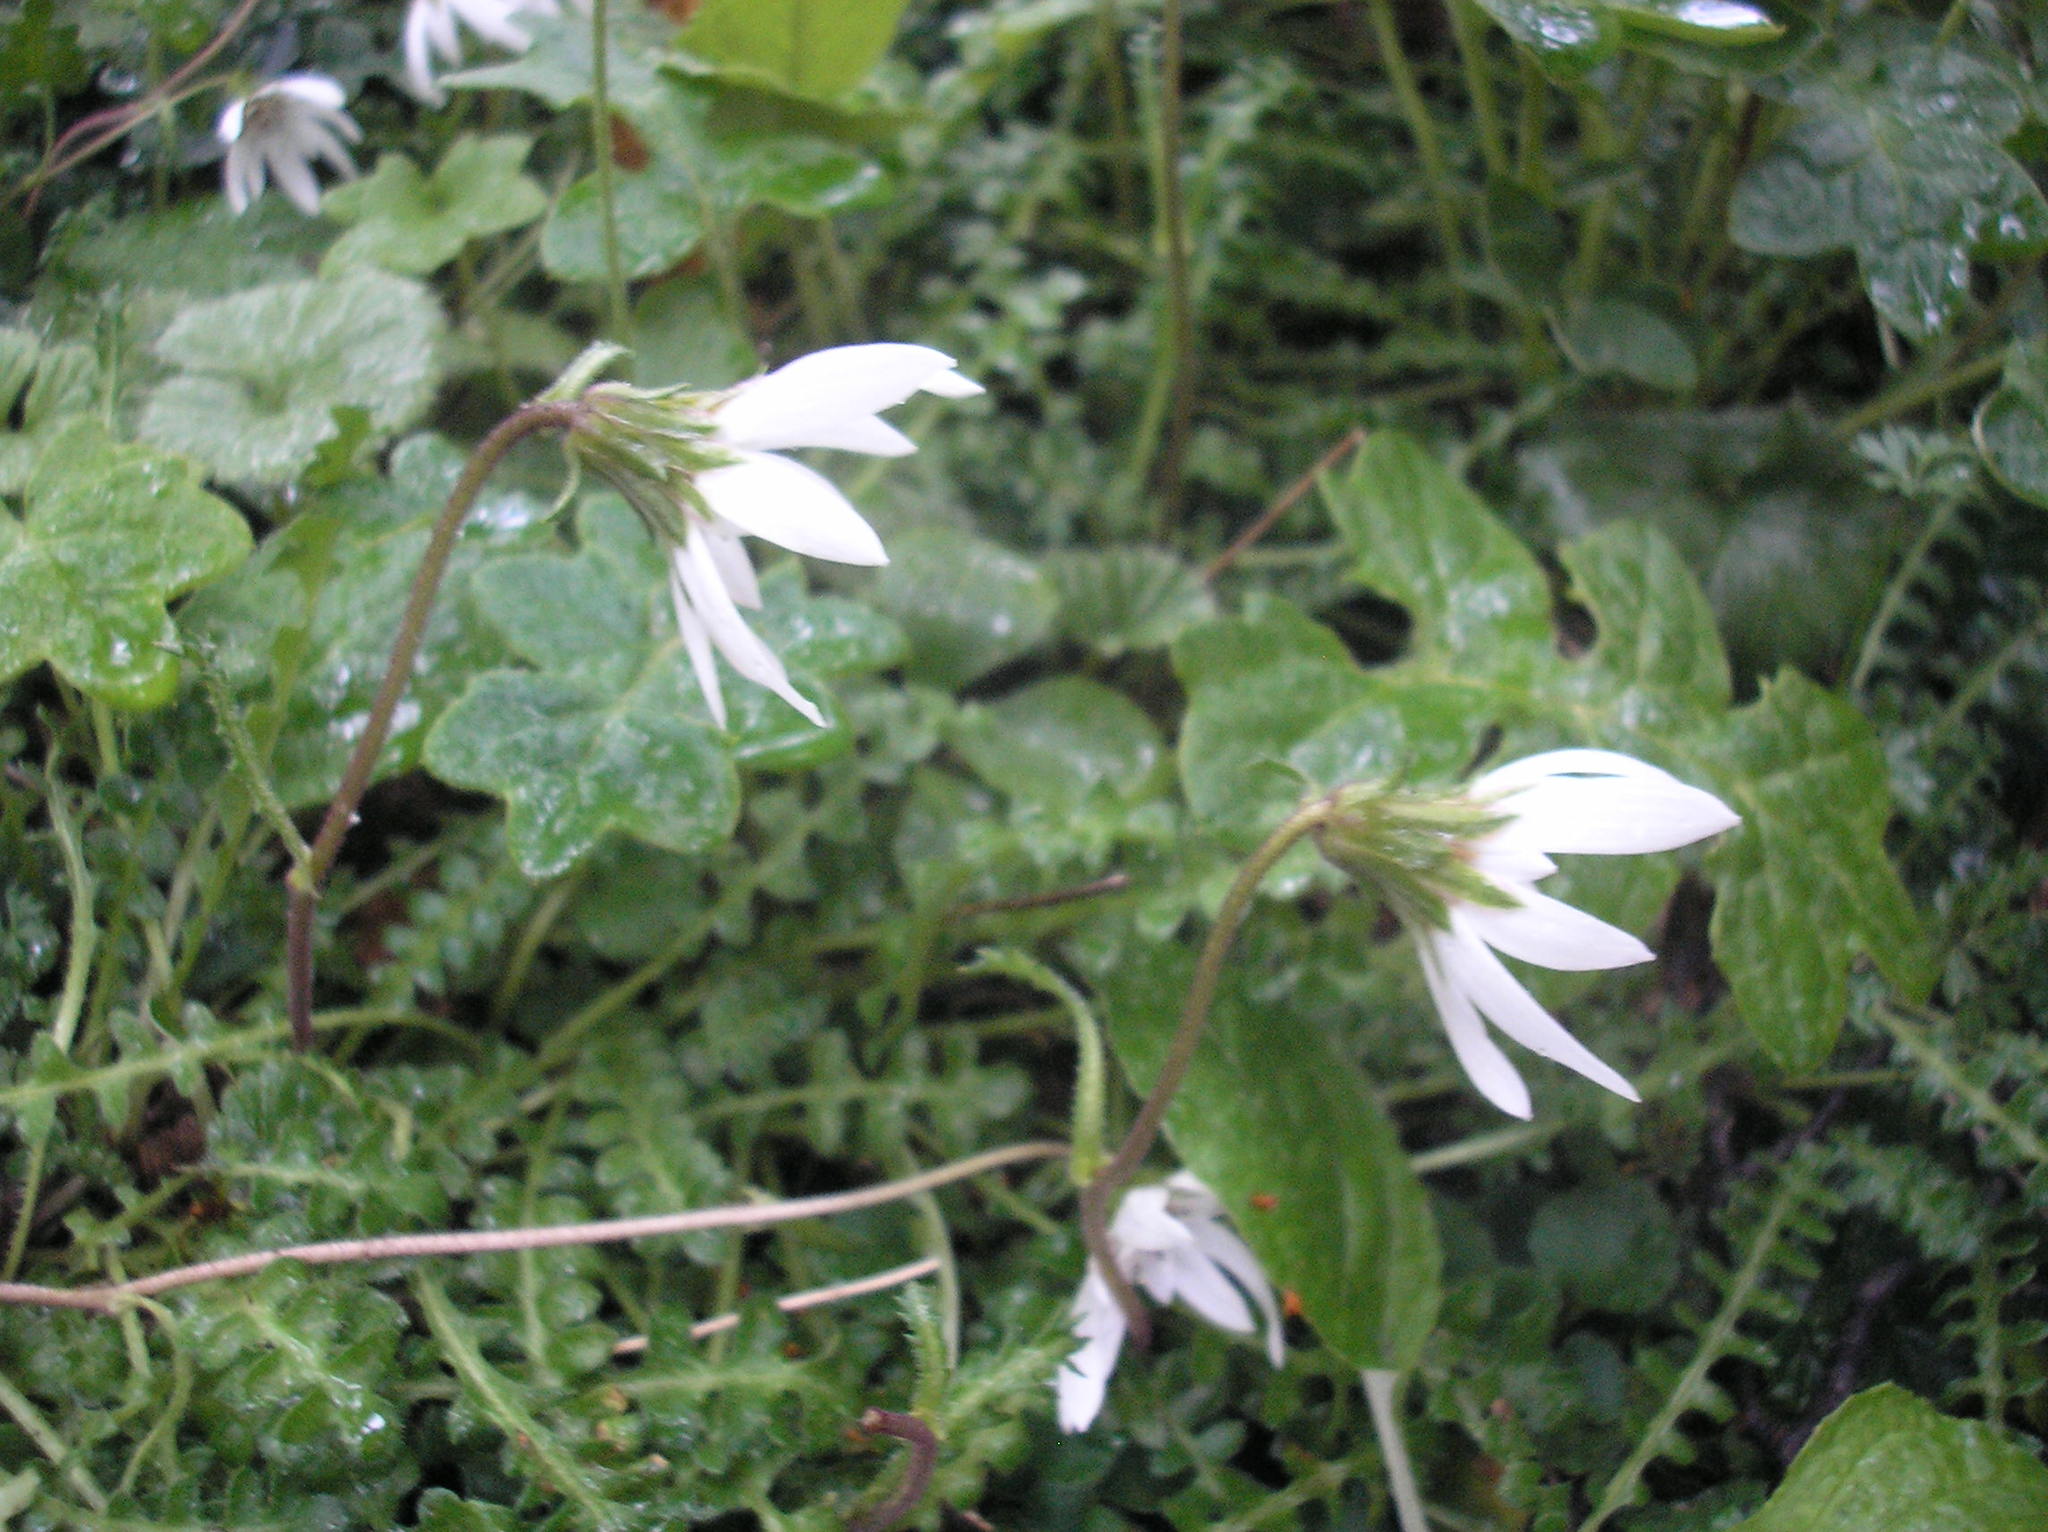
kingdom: Plantae
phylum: Tracheophyta
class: Magnoliopsida
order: Asterales
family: Asteraceae
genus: Perezia
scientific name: Perezia magellanica
